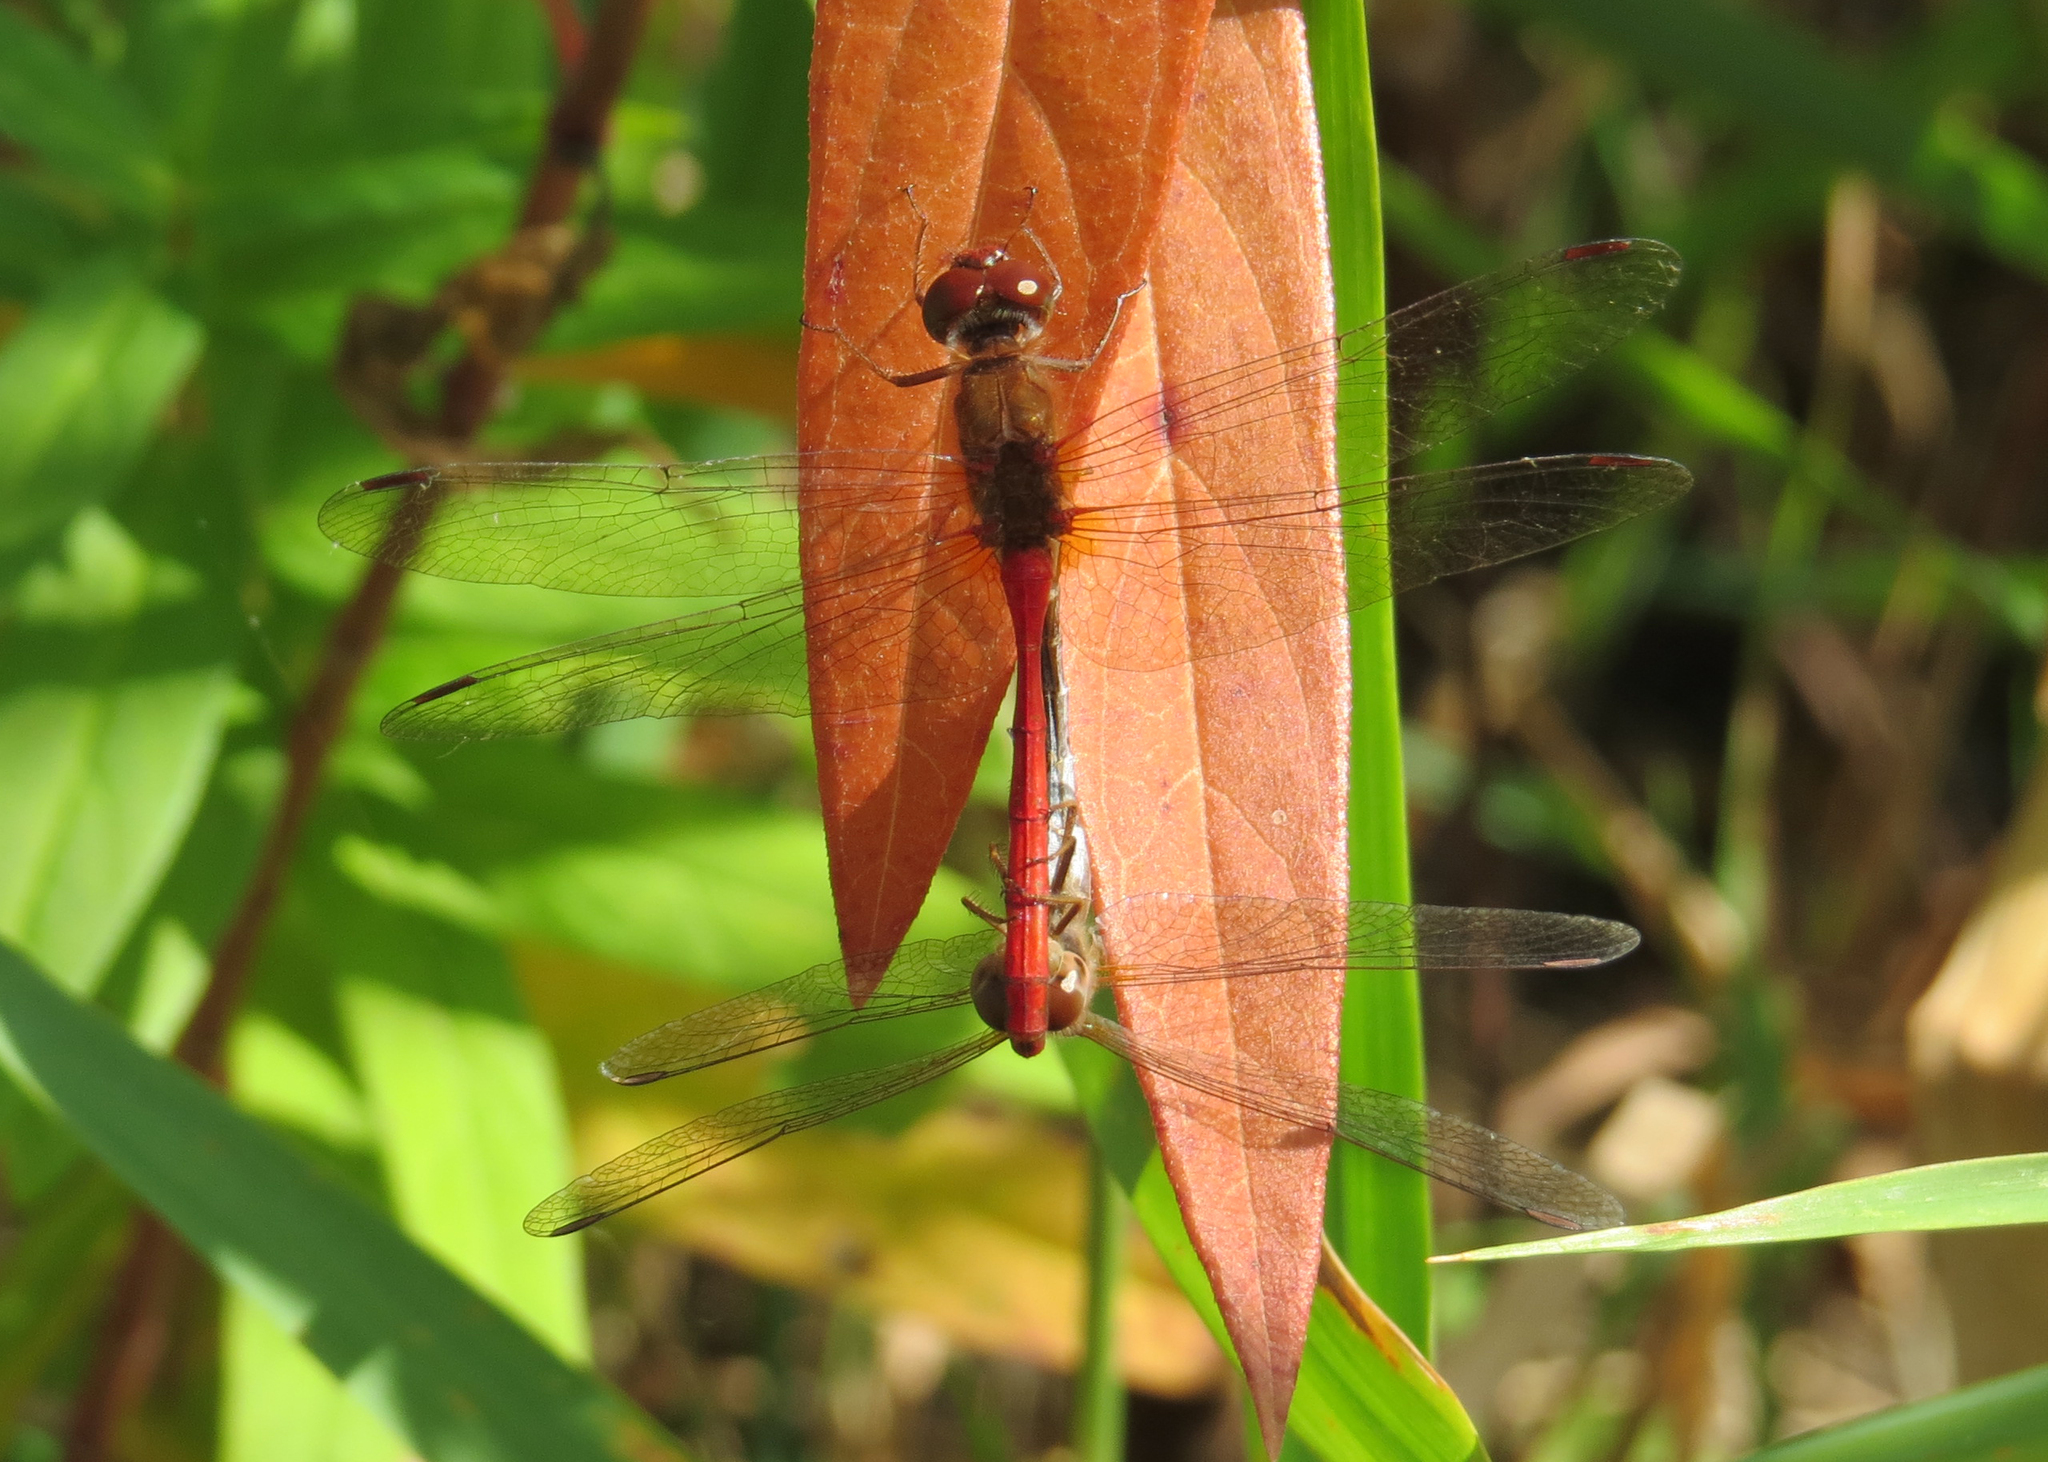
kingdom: Animalia
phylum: Arthropoda
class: Insecta
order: Odonata
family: Libellulidae
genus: Sympetrum
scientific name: Sympetrum vicinum
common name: Autumn meadowhawk
